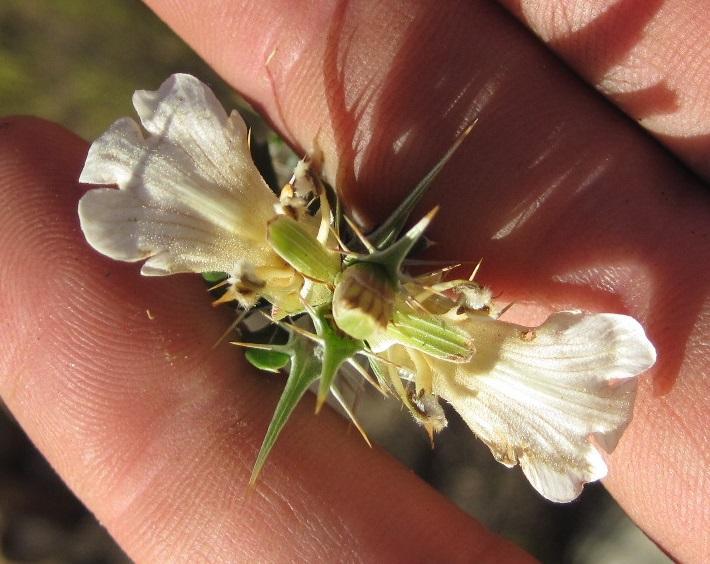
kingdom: Plantae
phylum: Tracheophyta
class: Magnoliopsida
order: Lamiales
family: Acanthaceae
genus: Blepharis
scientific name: Blepharis capensis
